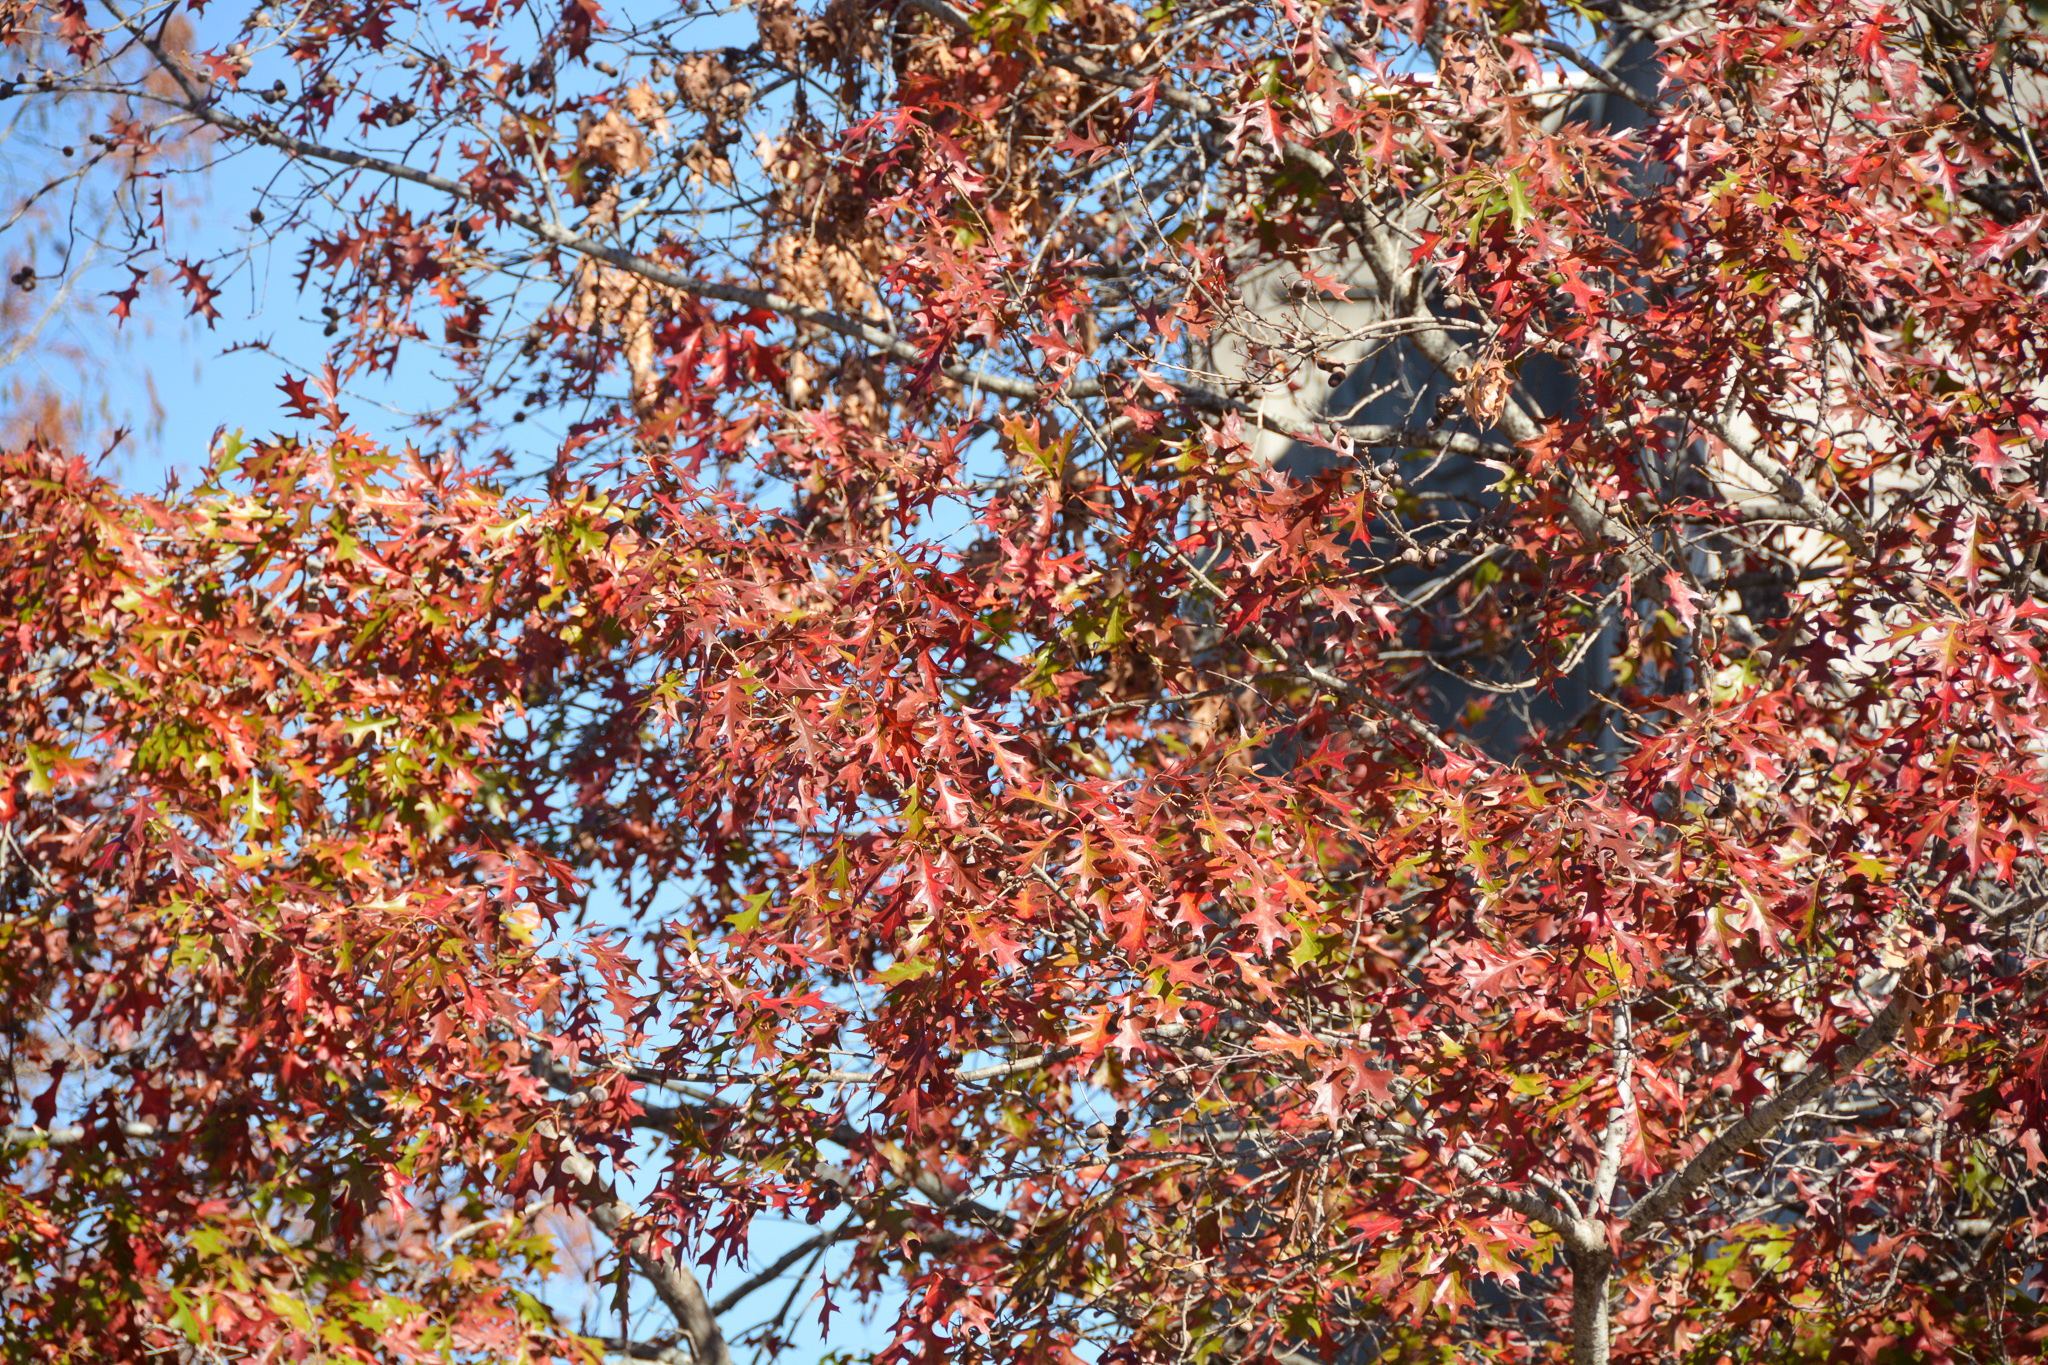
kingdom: Plantae
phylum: Tracheophyta
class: Magnoliopsida
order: Fagales
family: Fagaceae
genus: Quercus
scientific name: Quercus texana
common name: Nuttall oak
